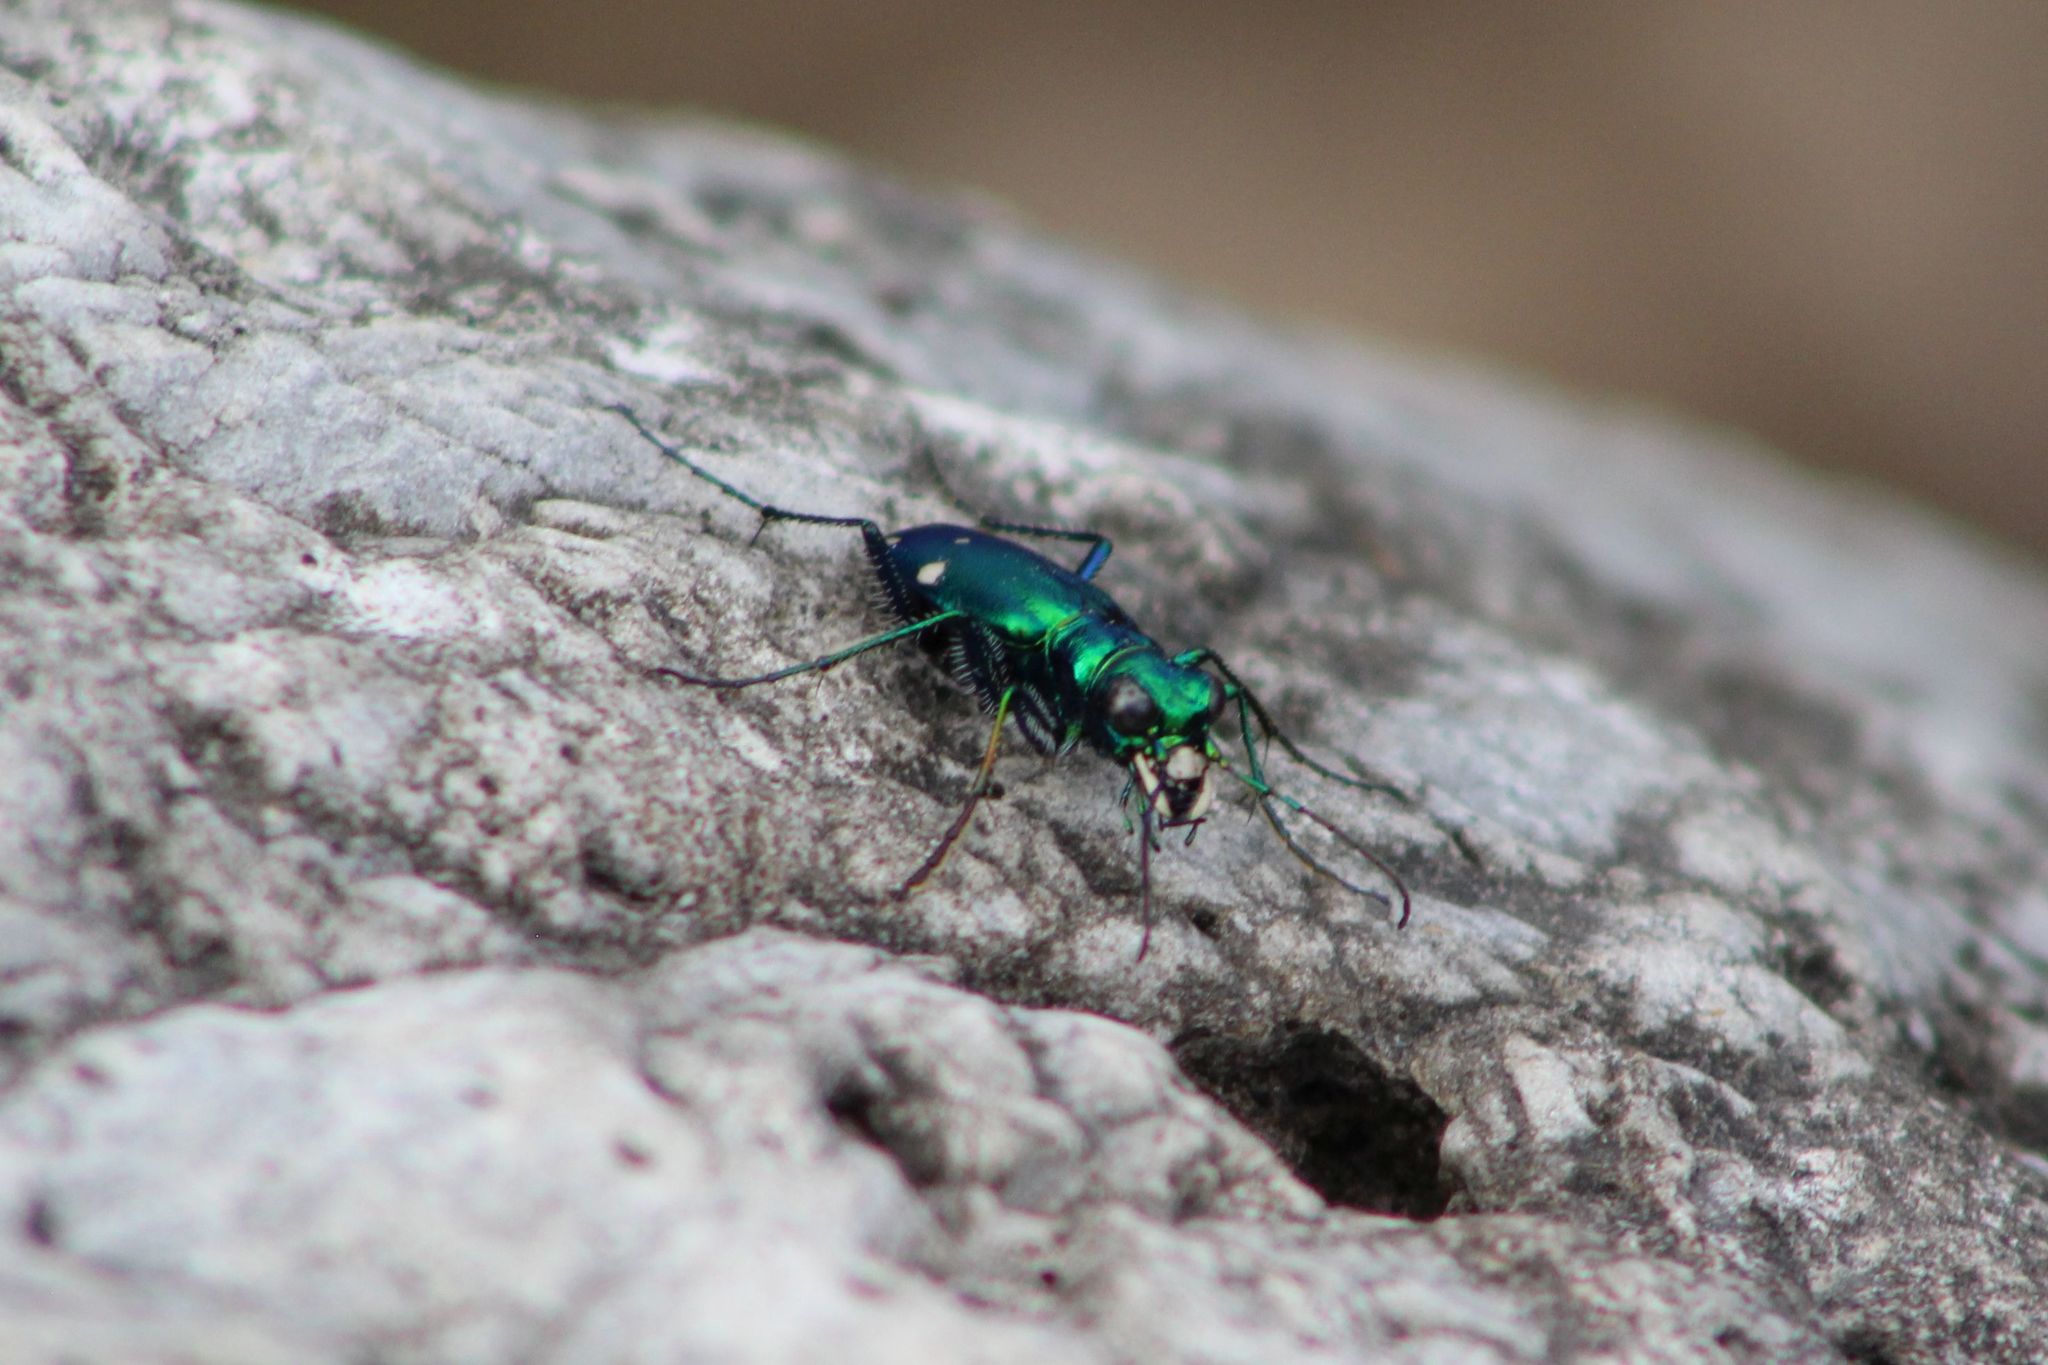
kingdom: Animalia
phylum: Arthropoda
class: Insecta
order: Coleoptera
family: Carabidae
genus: Cicindela
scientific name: Cicindela sexguttata
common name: Six-spotted tiger beetle
